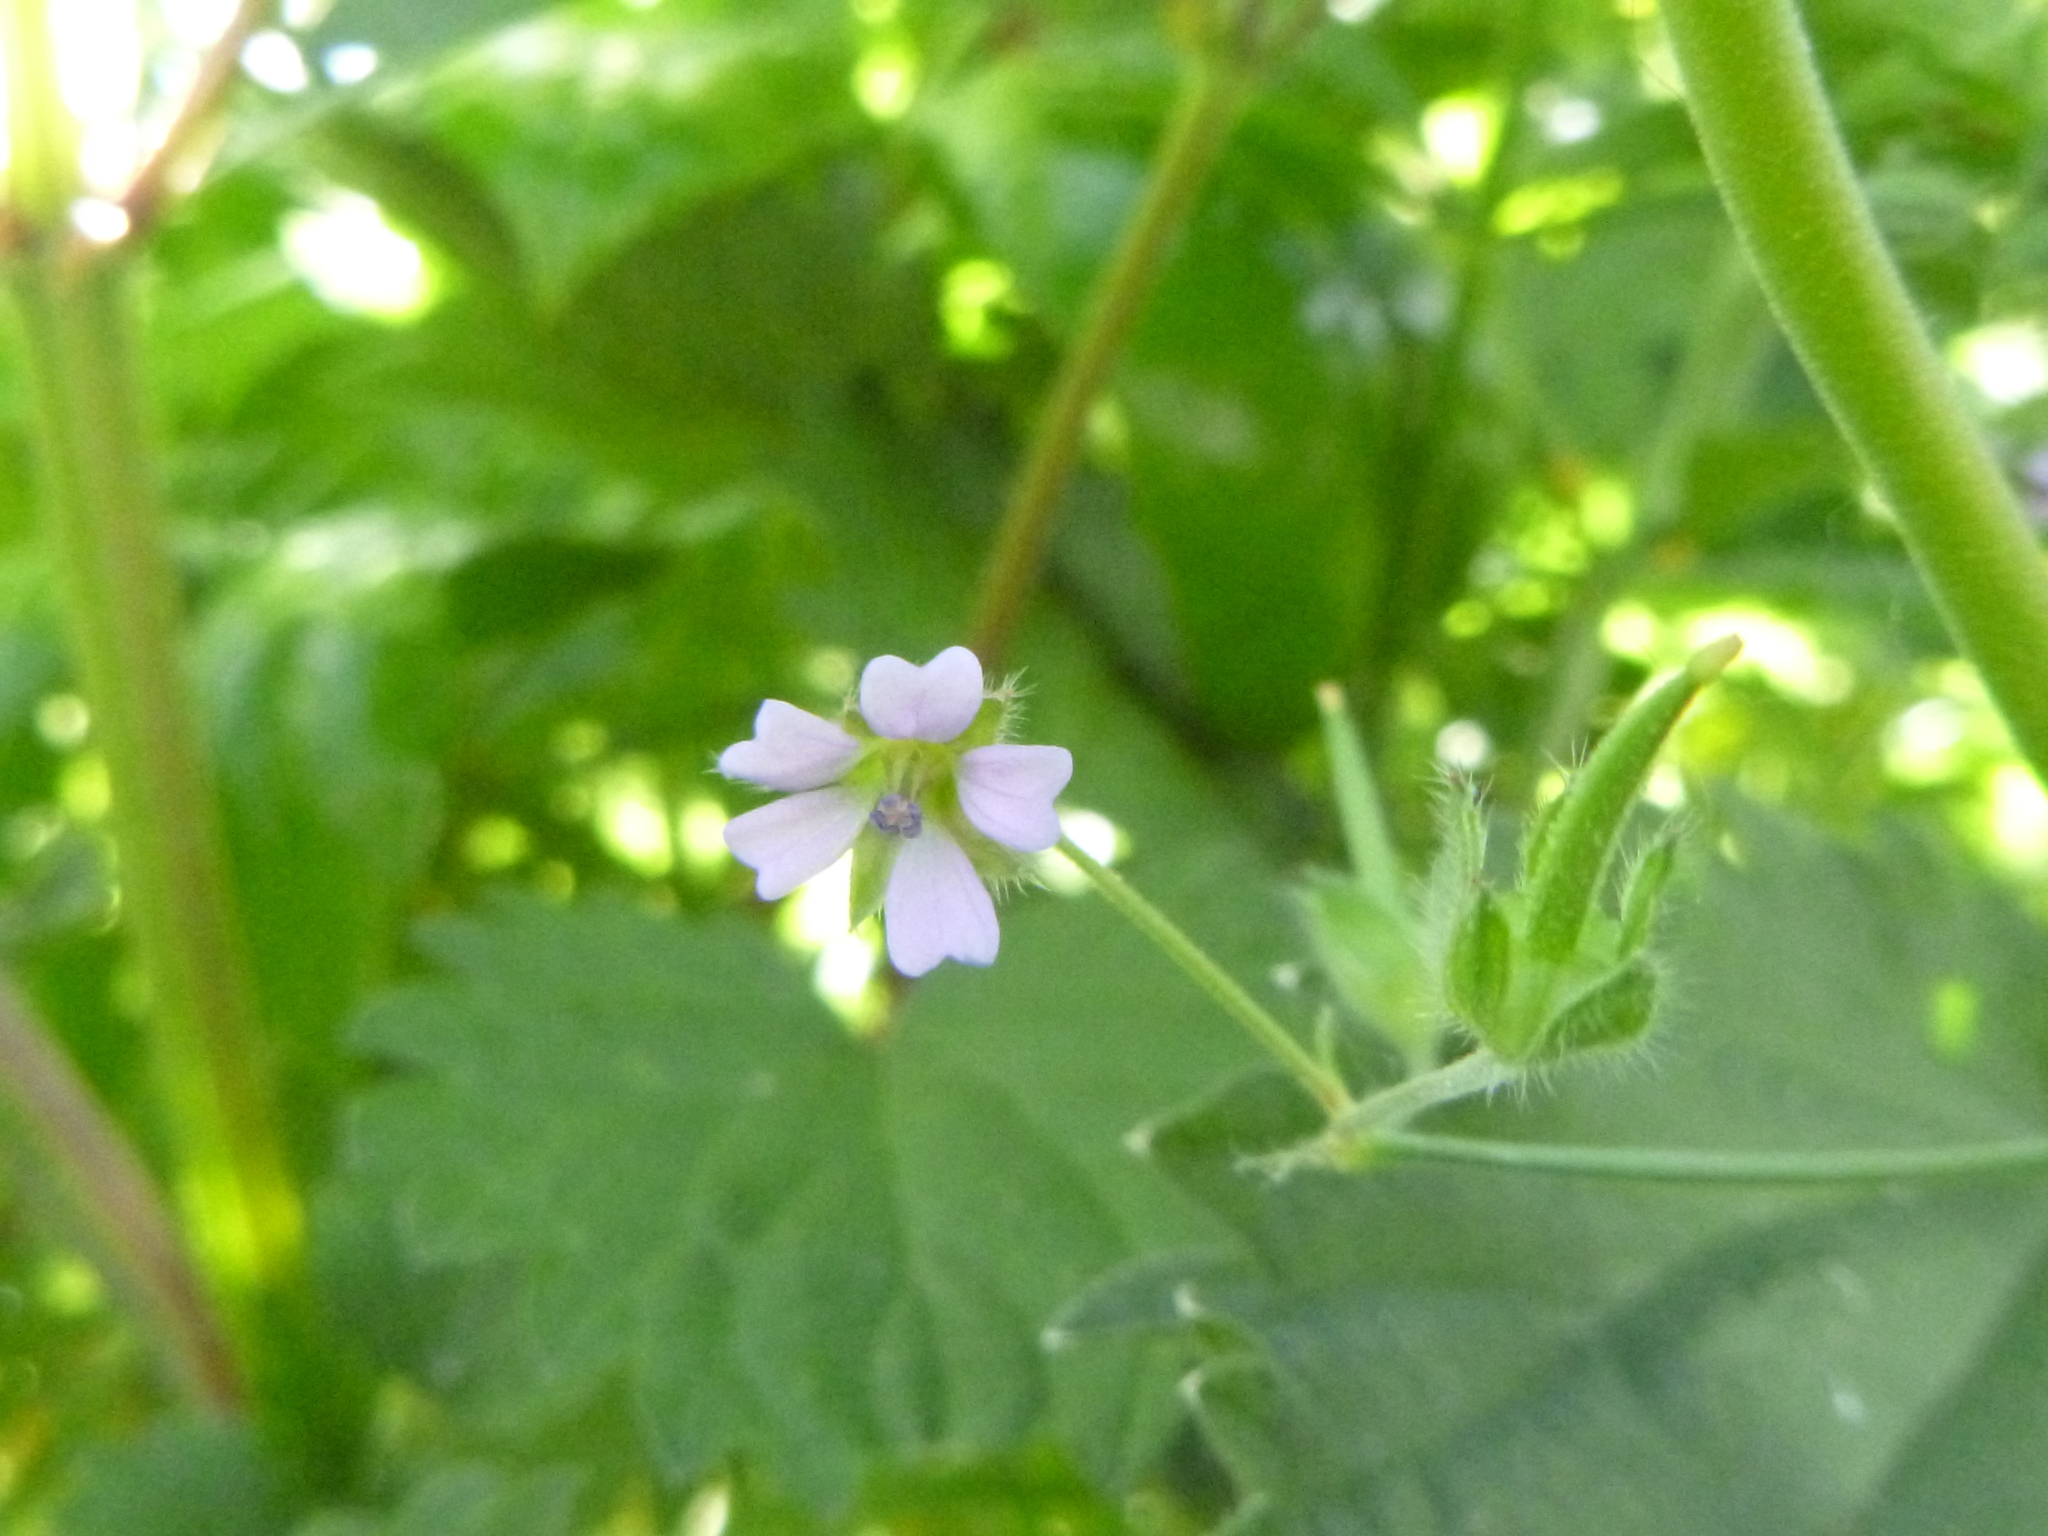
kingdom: Plantae
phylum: Tracheophyta
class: Magnoliopsida
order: Geraniales
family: Geraniaceae
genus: Geranium
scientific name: Geranium pusillum
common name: Small geranium
